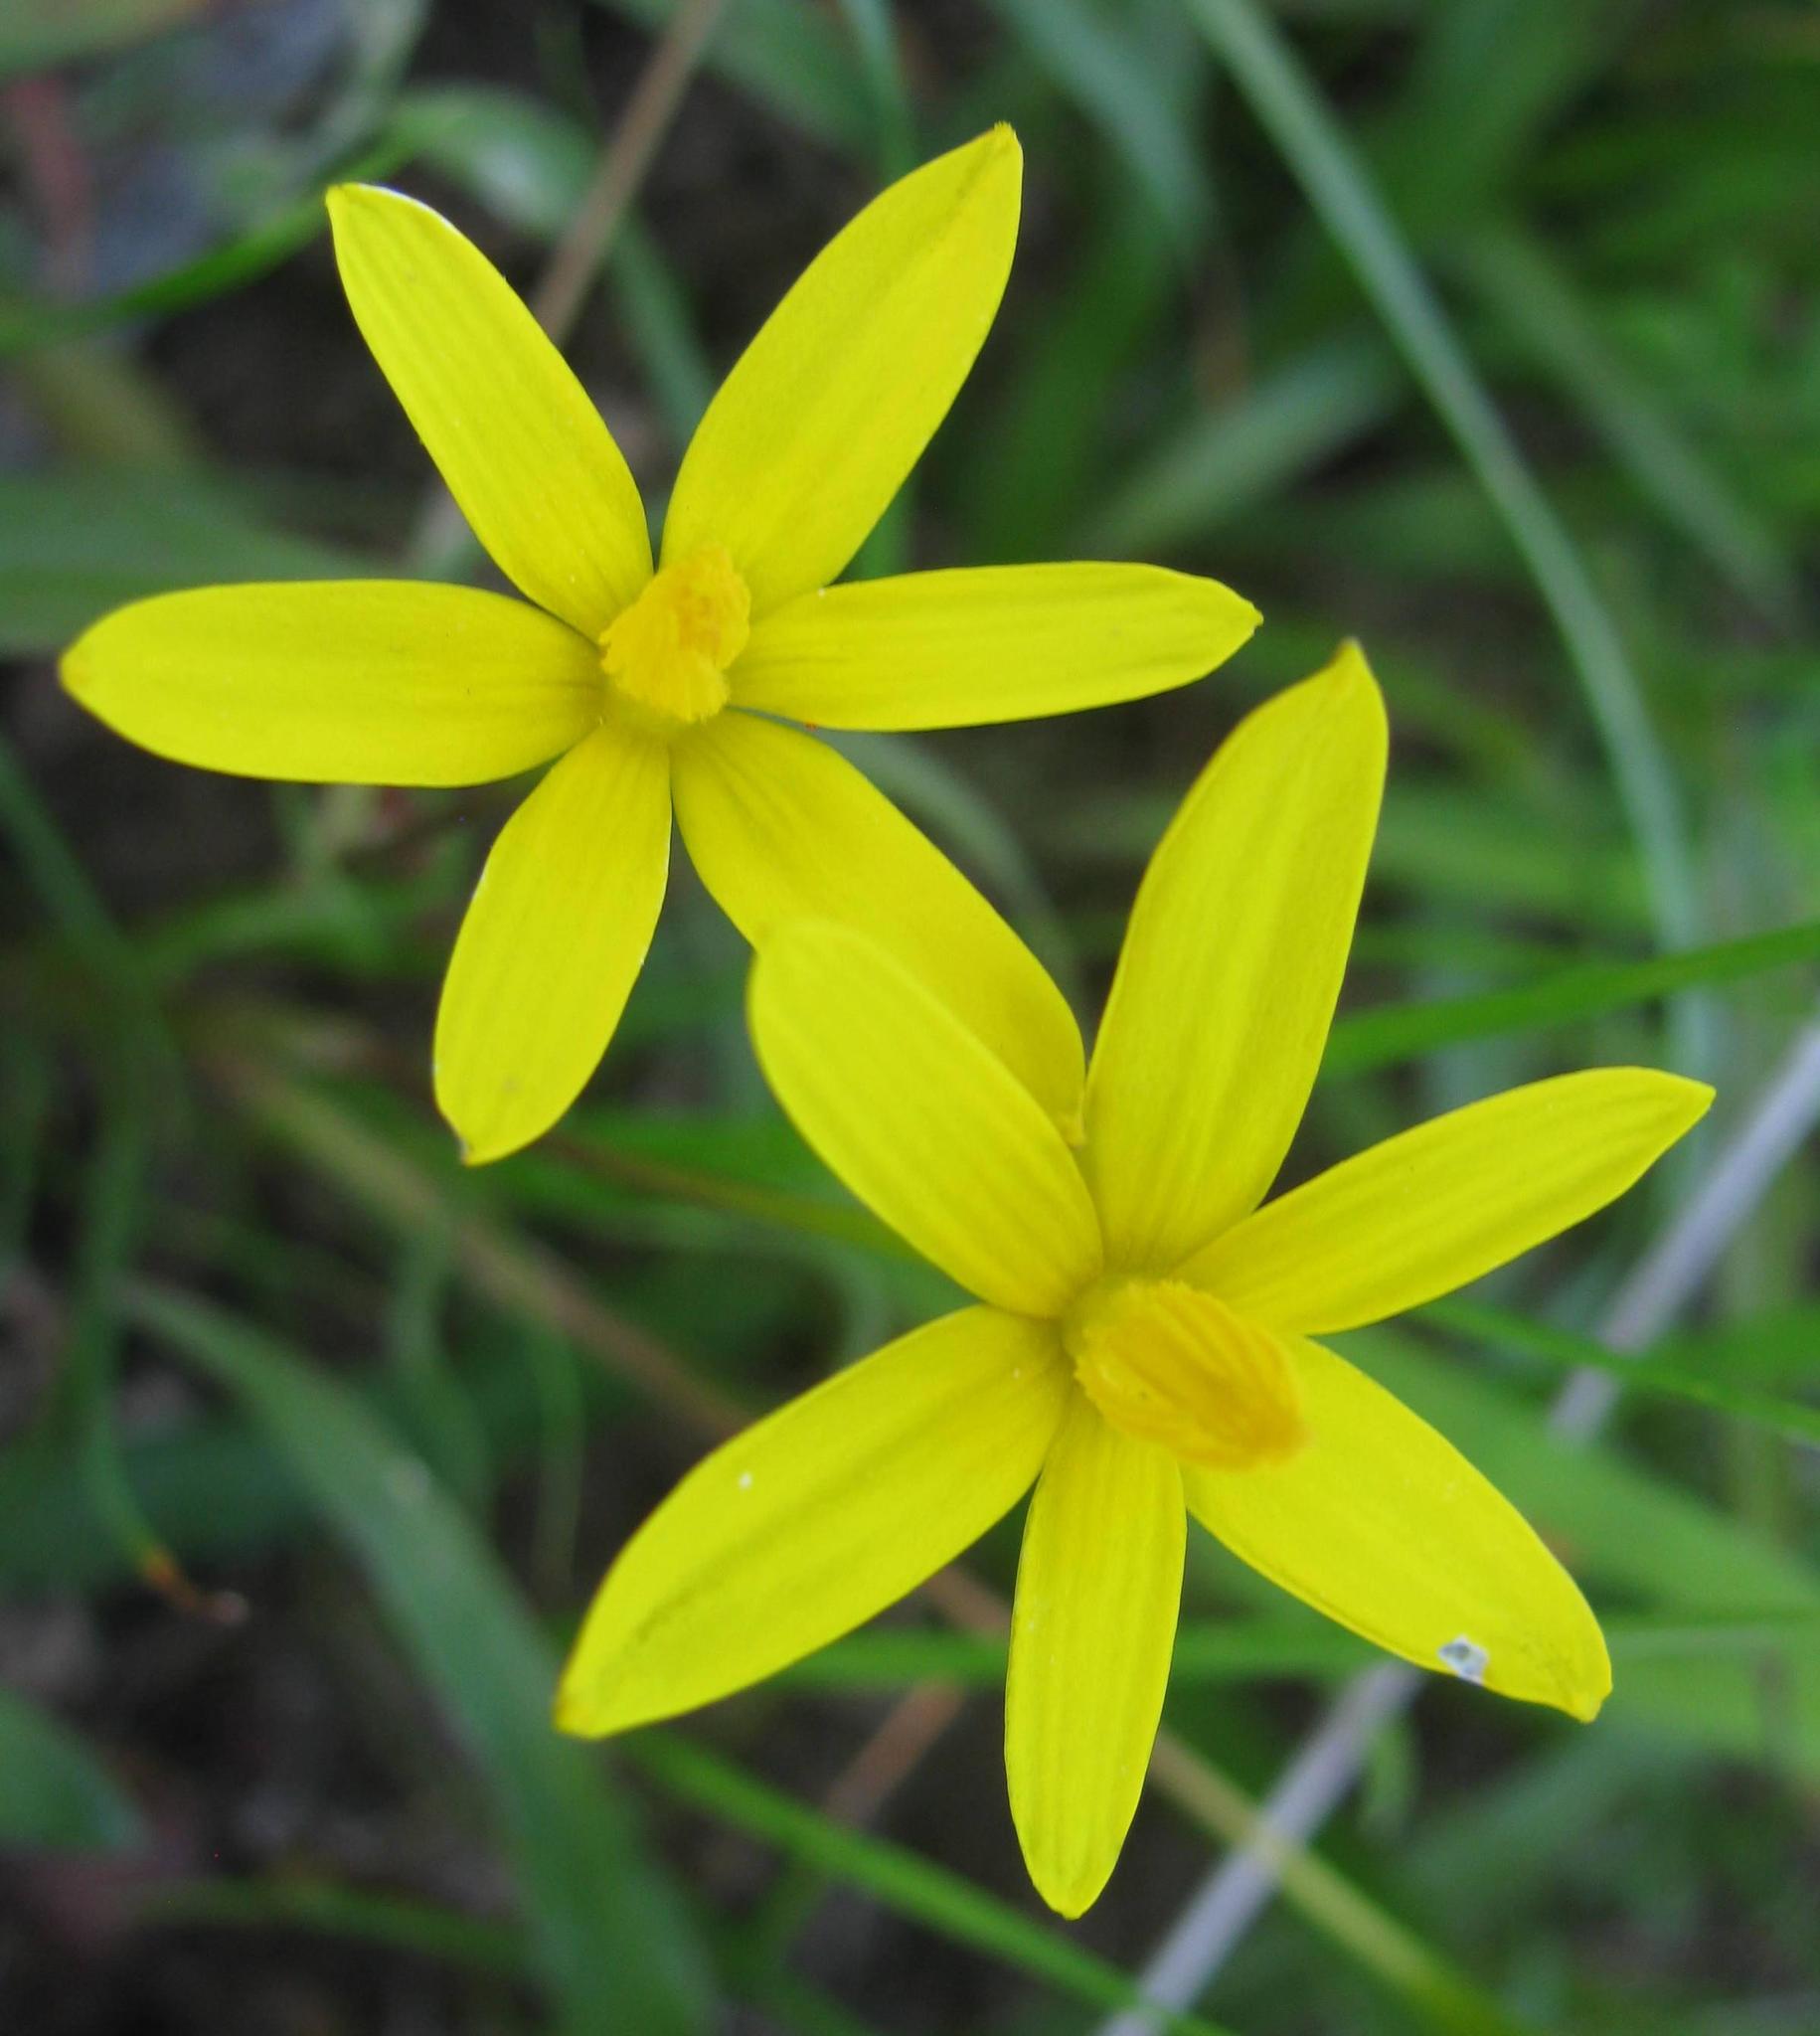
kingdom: Plantae
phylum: Tracheophyta
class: Liliopsida
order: Asparagales
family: Hypoxidaceae
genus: Pauridia
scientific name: Pauridia flaccida
